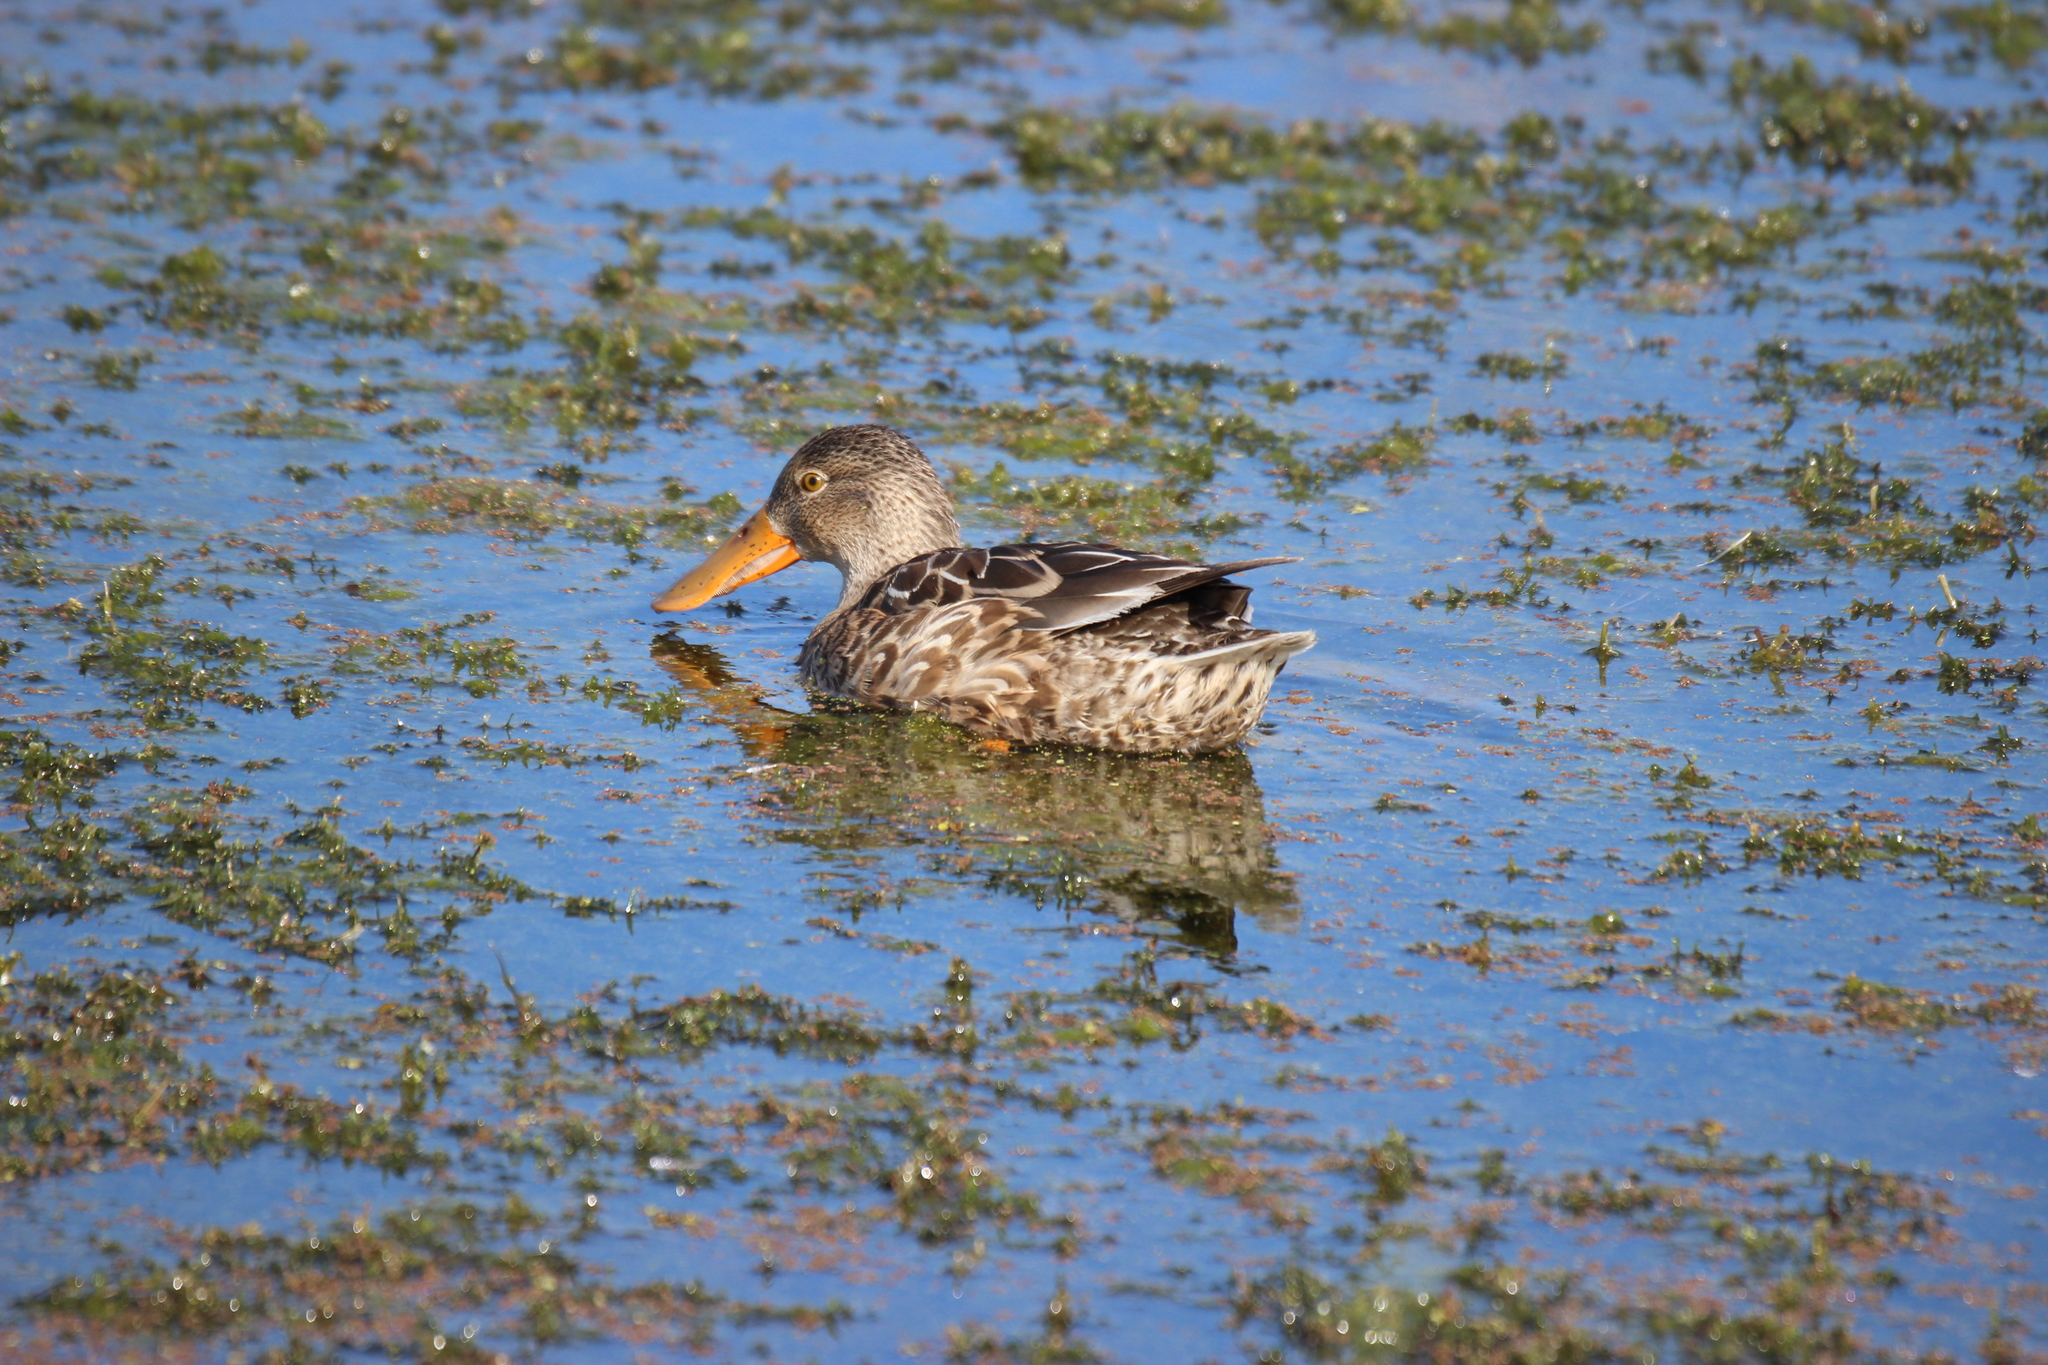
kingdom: Animalia
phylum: Chordata
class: Aves
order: Anseriformes
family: Anatidae
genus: Spatula
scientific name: Spatula clypeata
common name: Northern shoveler
